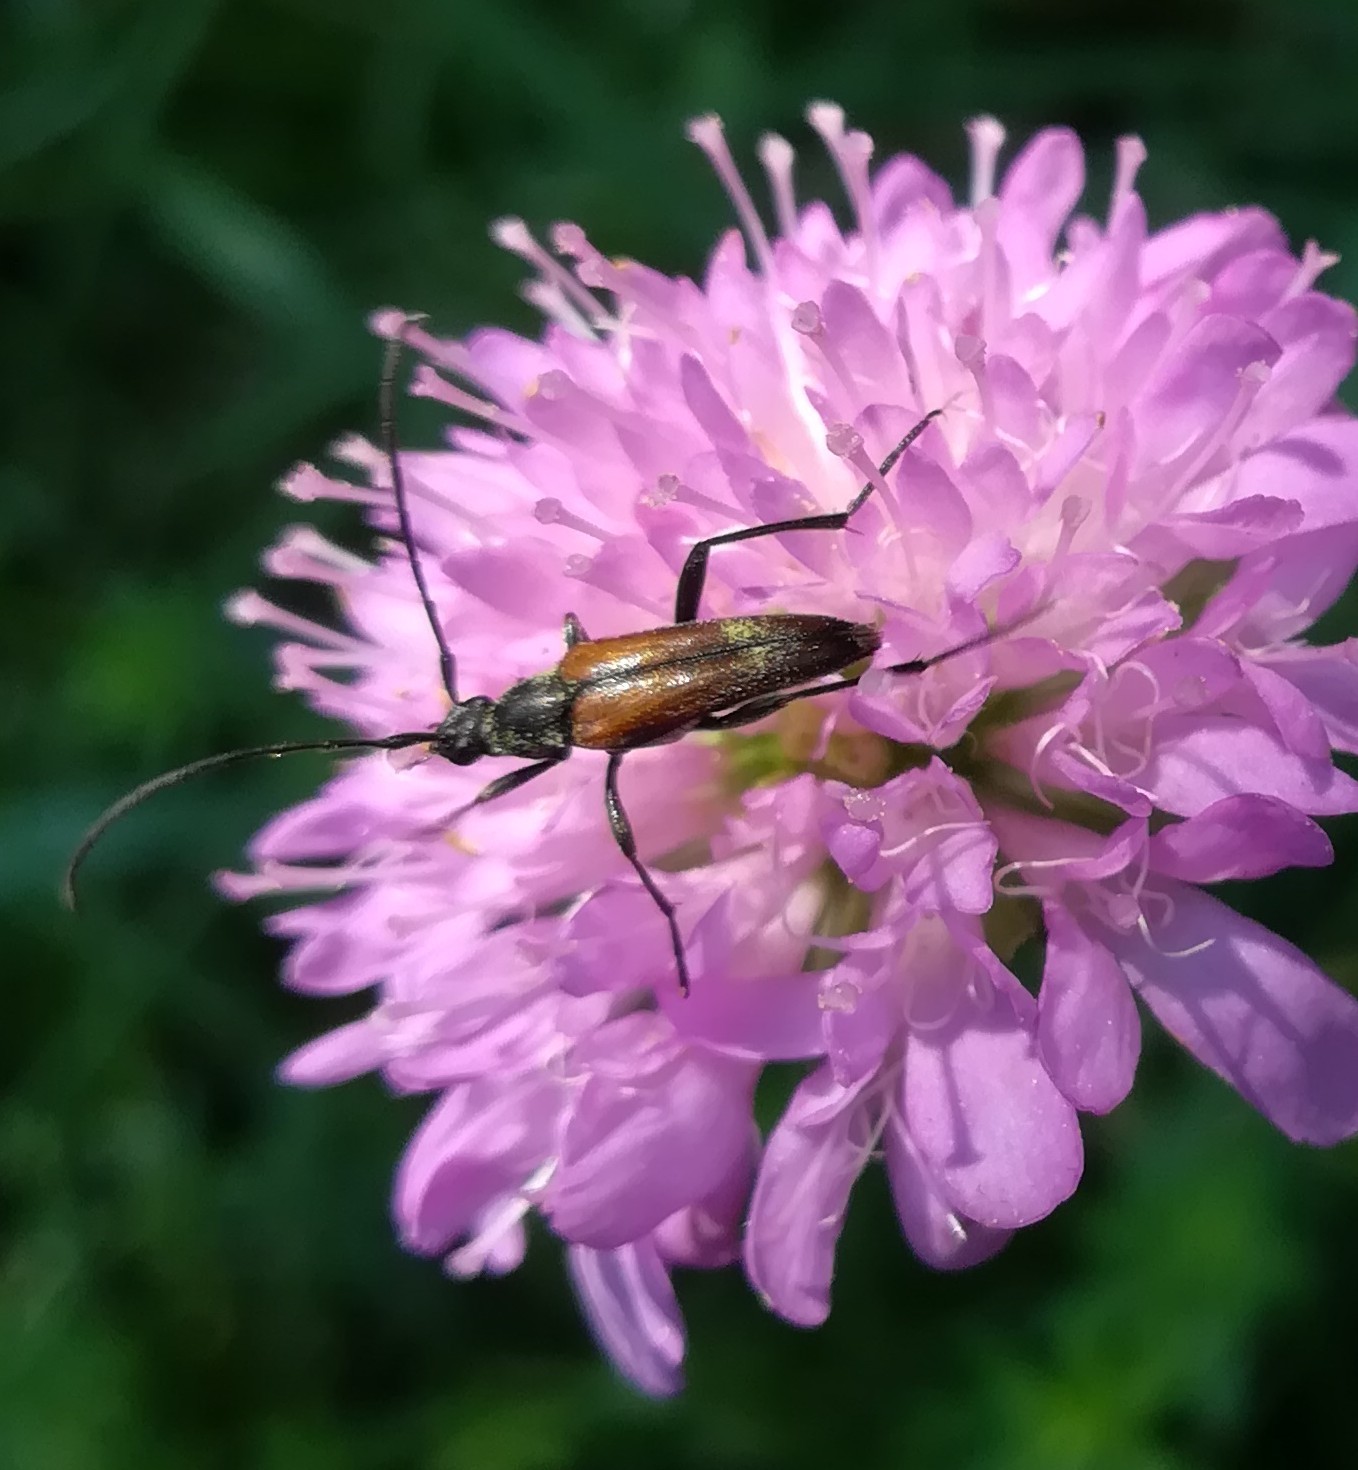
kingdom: Animalia
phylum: Arthropoda
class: Insecta
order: Coleoptera
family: Cerambycidae
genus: Stenurella
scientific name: Stenurella melanura
